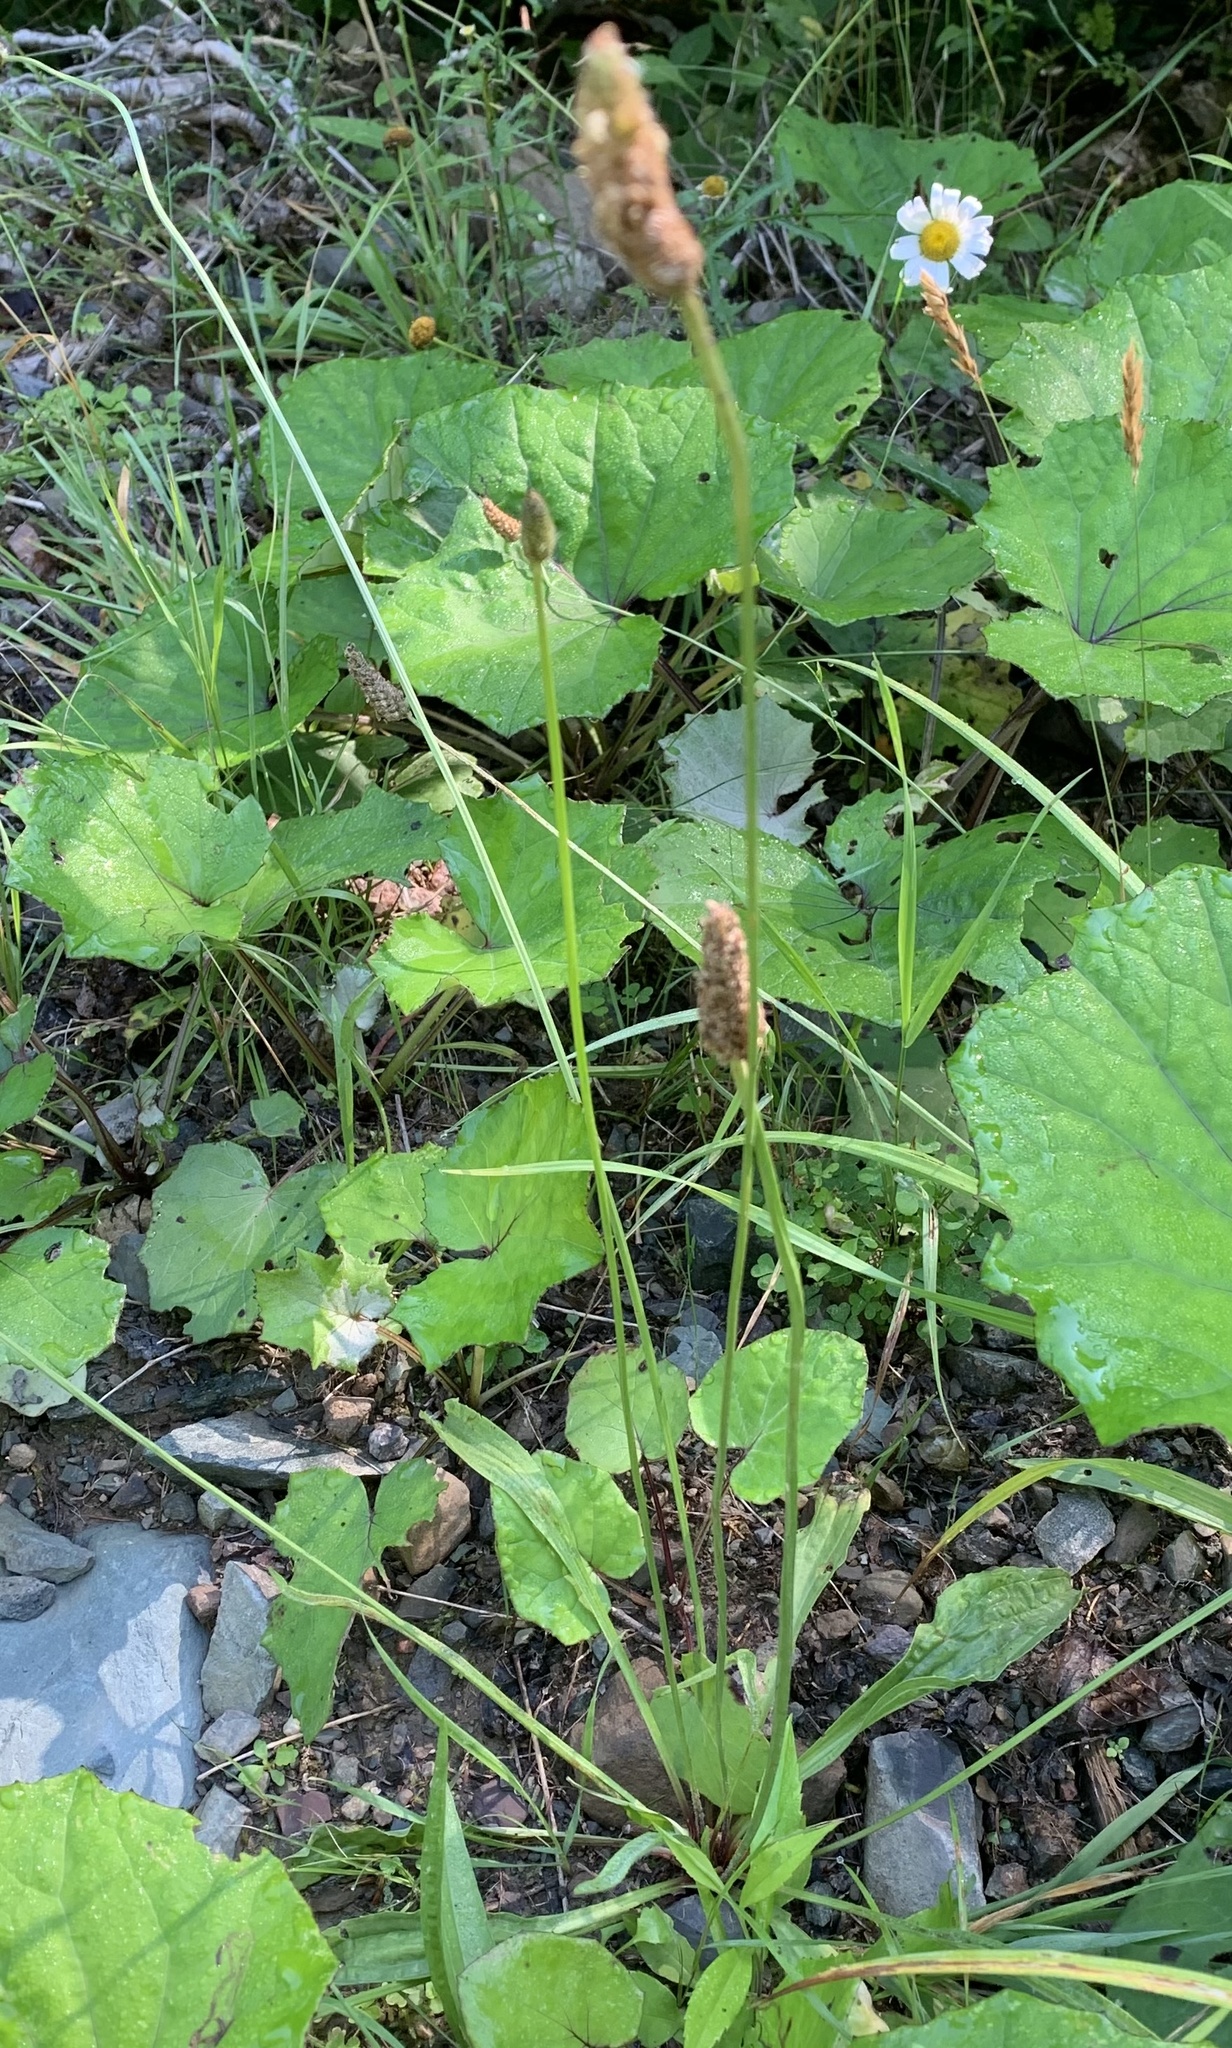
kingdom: Plantae
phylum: Tracheophyta
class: Magnoliopsida
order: Lamiales
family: Plantaginaceae
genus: Plantago
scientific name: Plantago lanceolata
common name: Ribwort plantain
